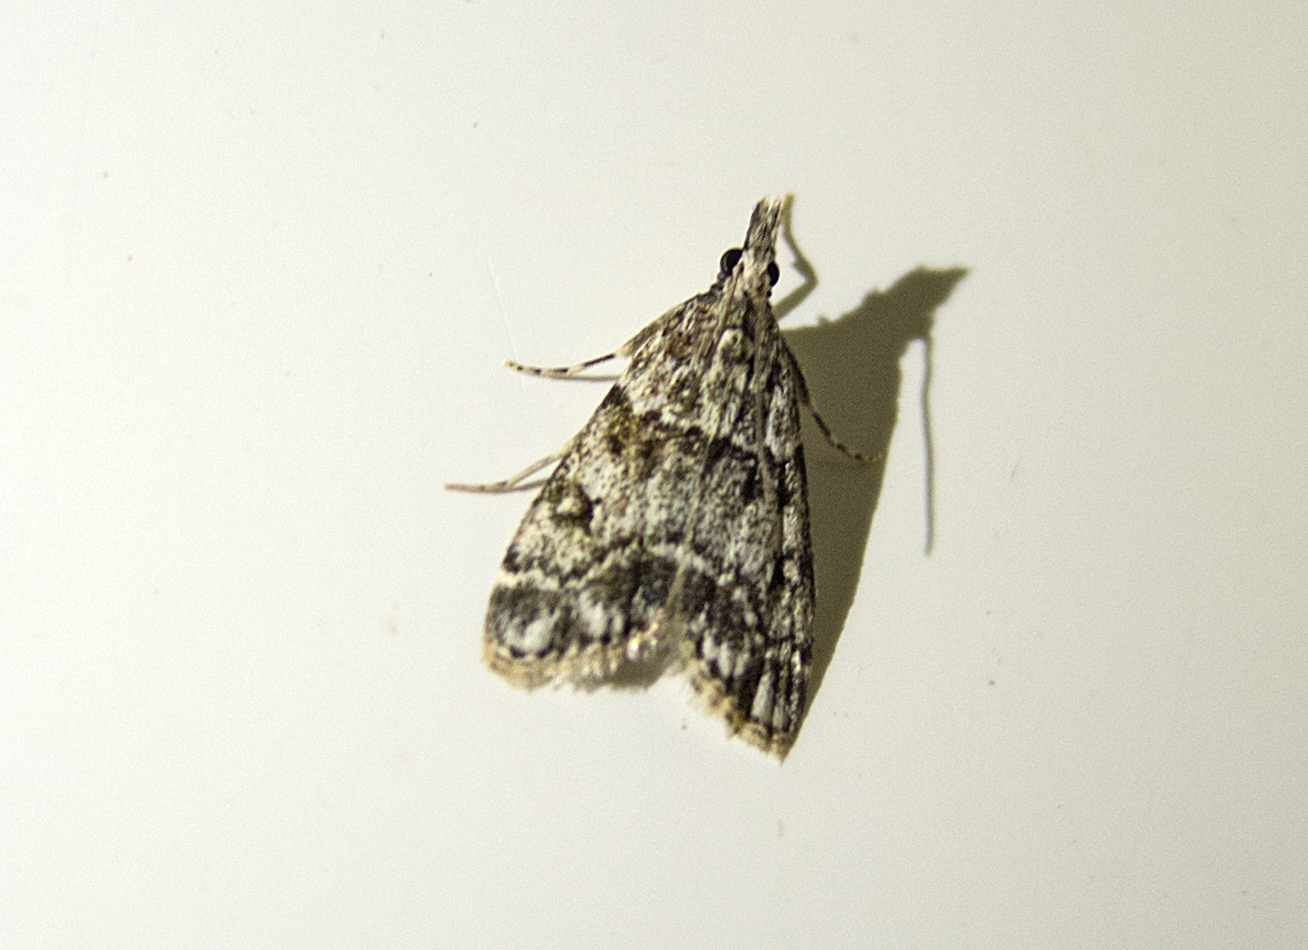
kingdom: Animalia
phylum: Arthropoda
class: Insecta
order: Lepidoptera
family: Crambidae
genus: Eudonia
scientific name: Eudonia lacustrata
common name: Little grey
